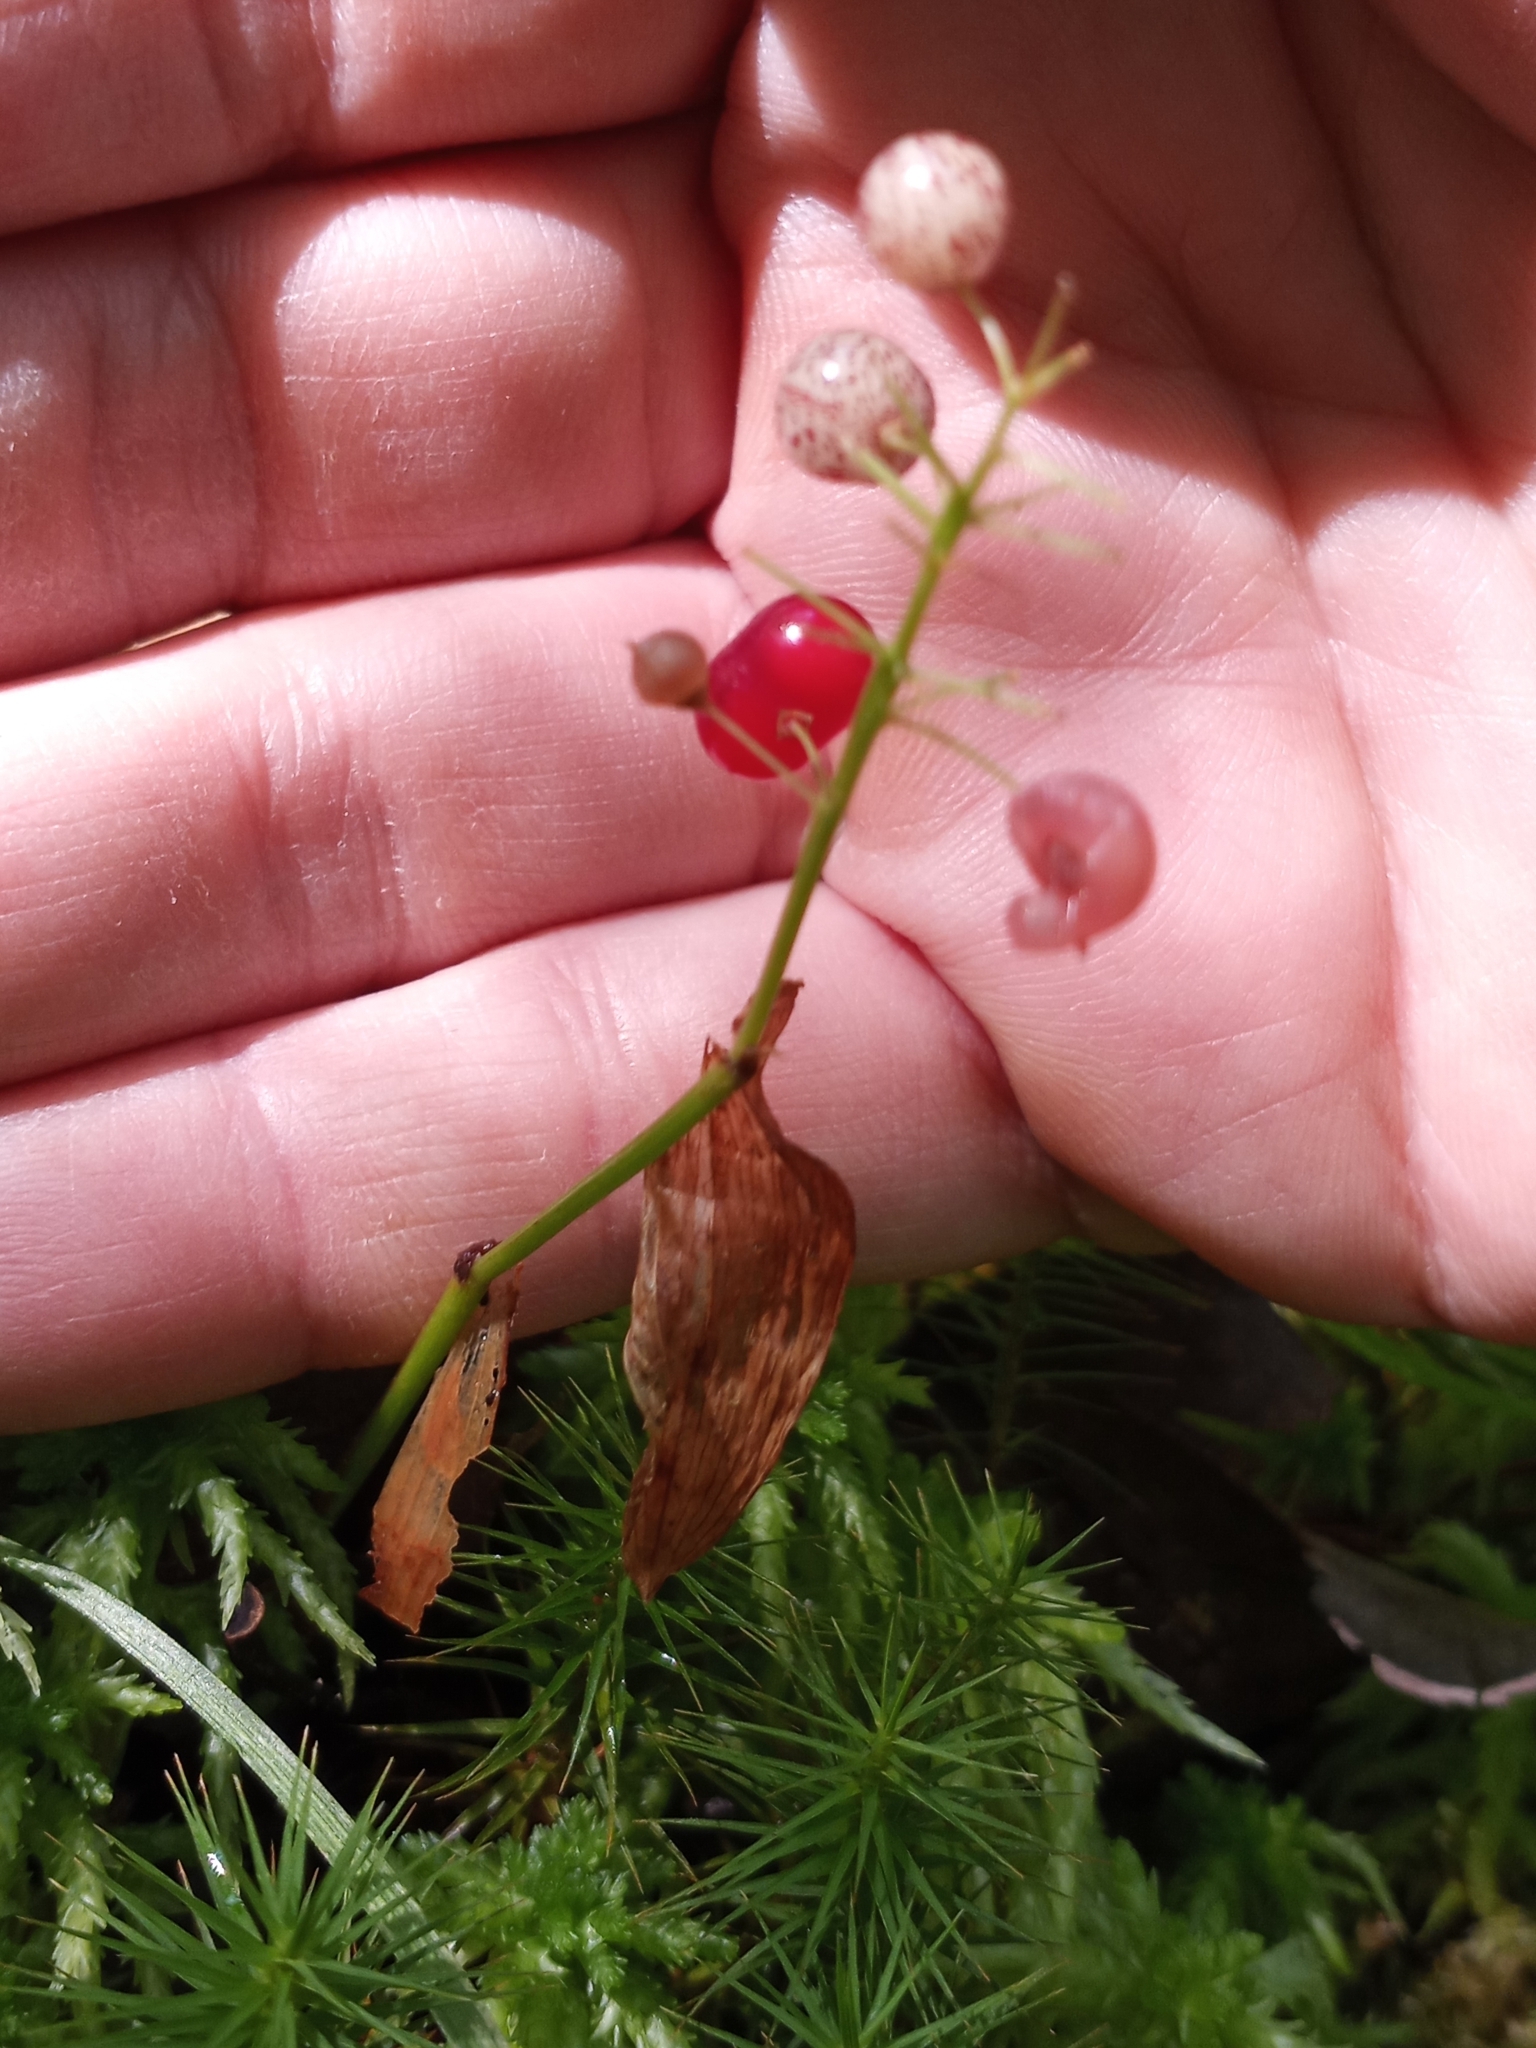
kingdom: Plantae
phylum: Tracheophyta
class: Liliopsida
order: Asparagales
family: Asparagaceae
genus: Maianthemum
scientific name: Maianthemum canadense
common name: False lily-of-the-valley
